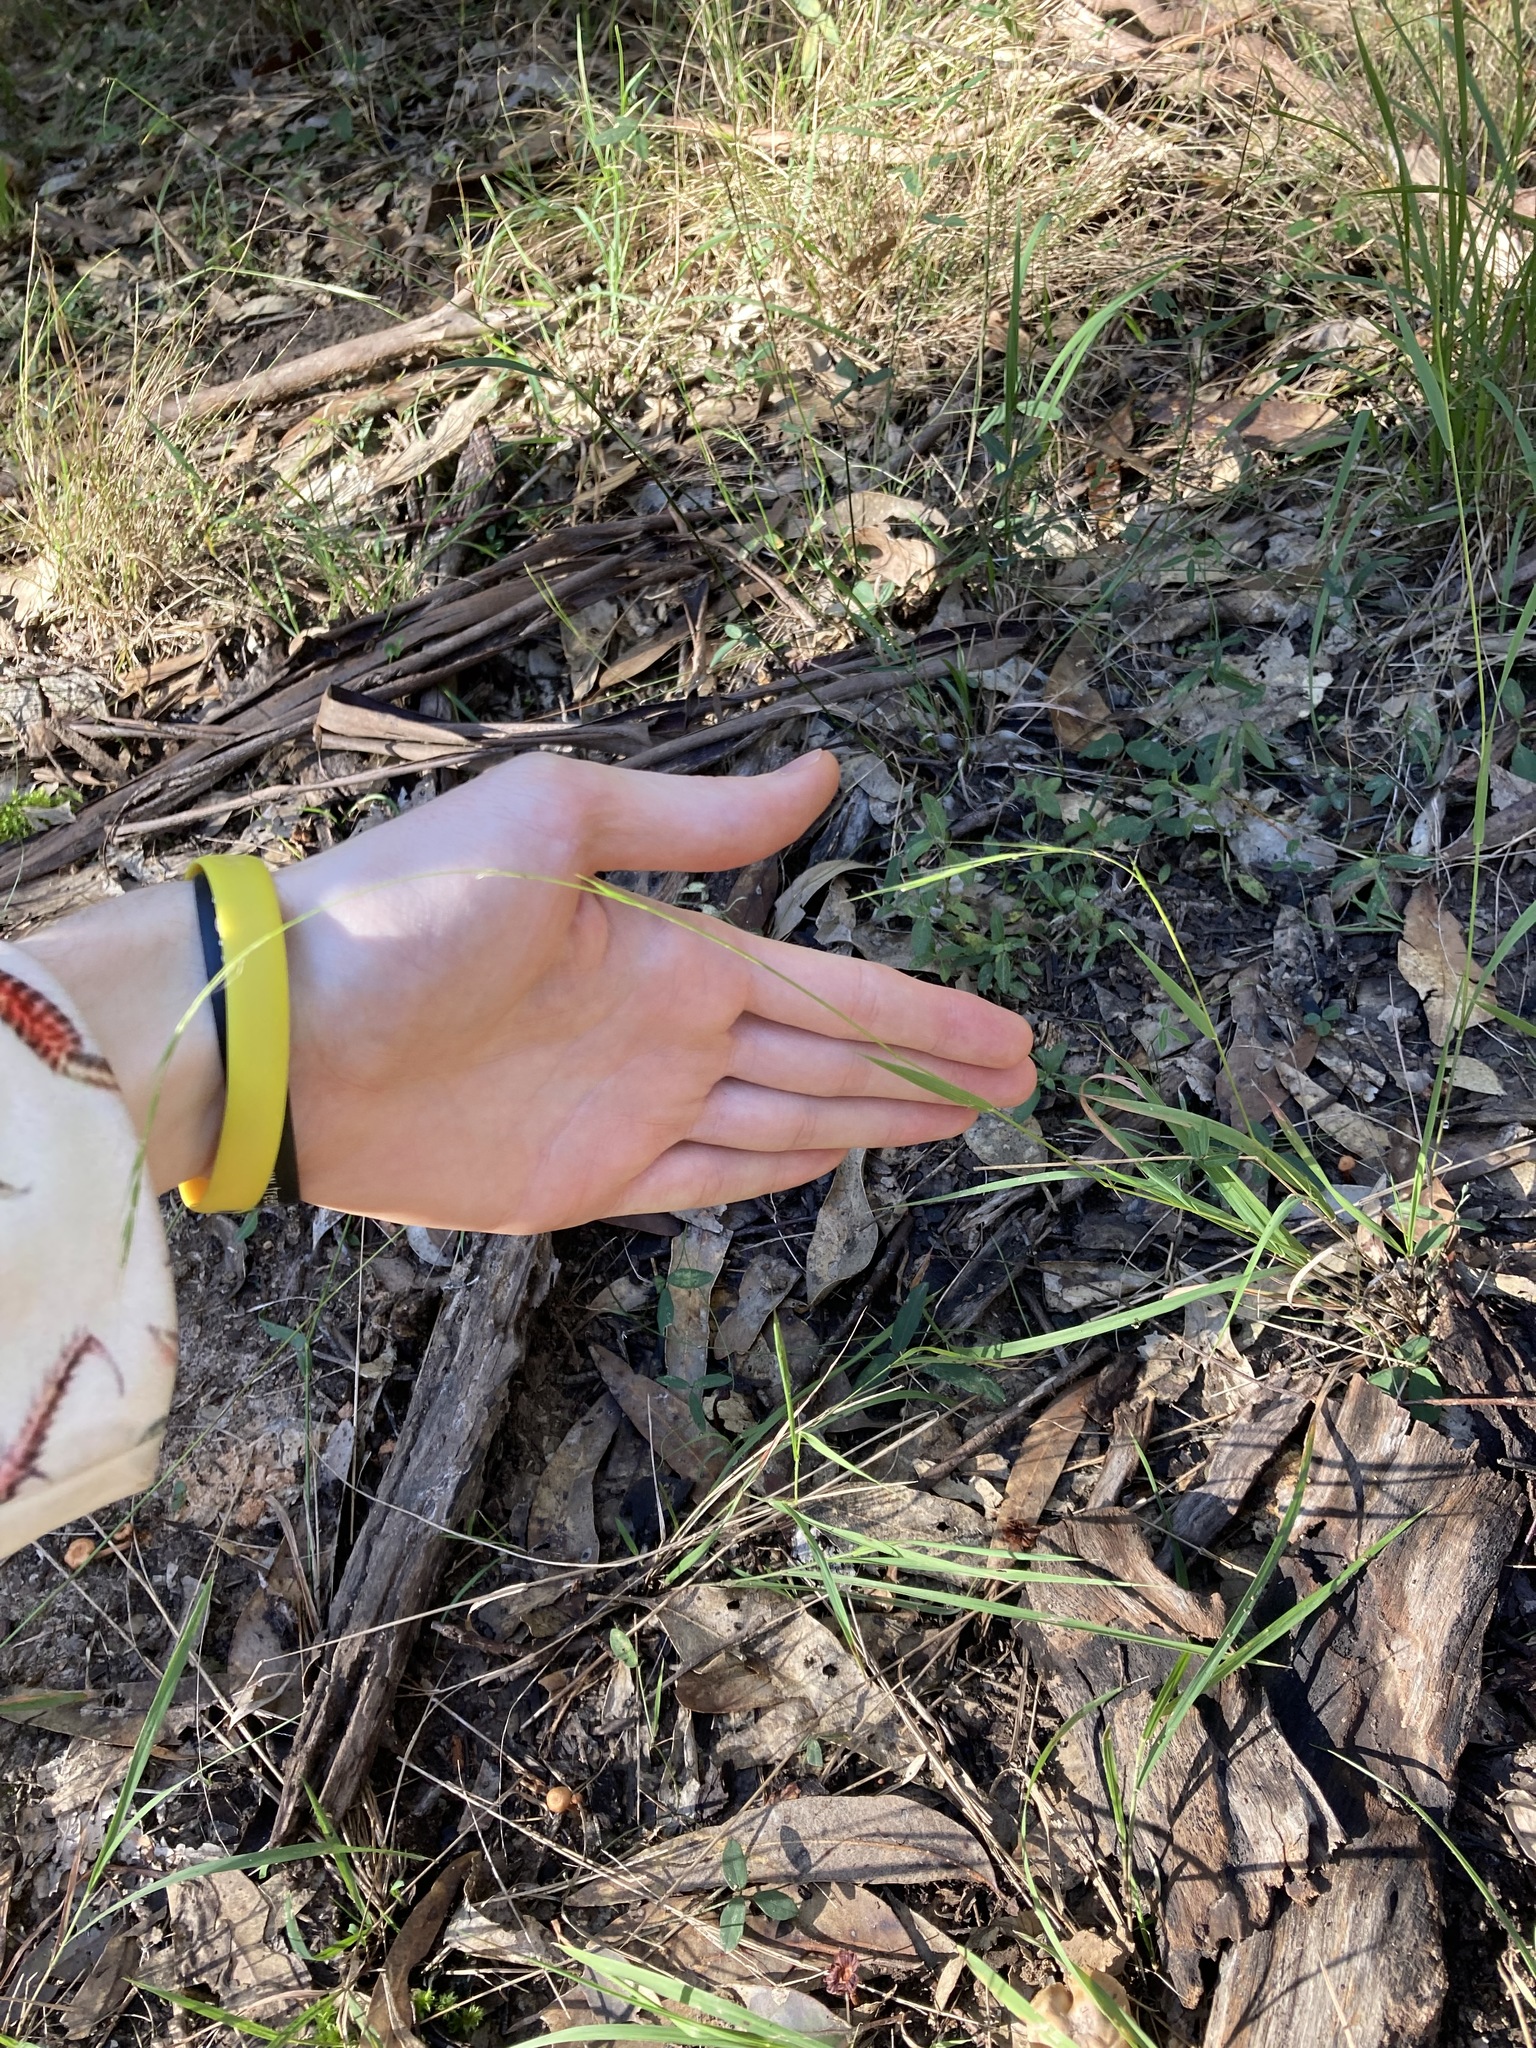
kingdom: Plantae
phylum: Tracheophyta
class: Liliopsida
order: Poales
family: Poaceae
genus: Microlaena
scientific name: Microlaena stipoides
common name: Meadow ricegrass
